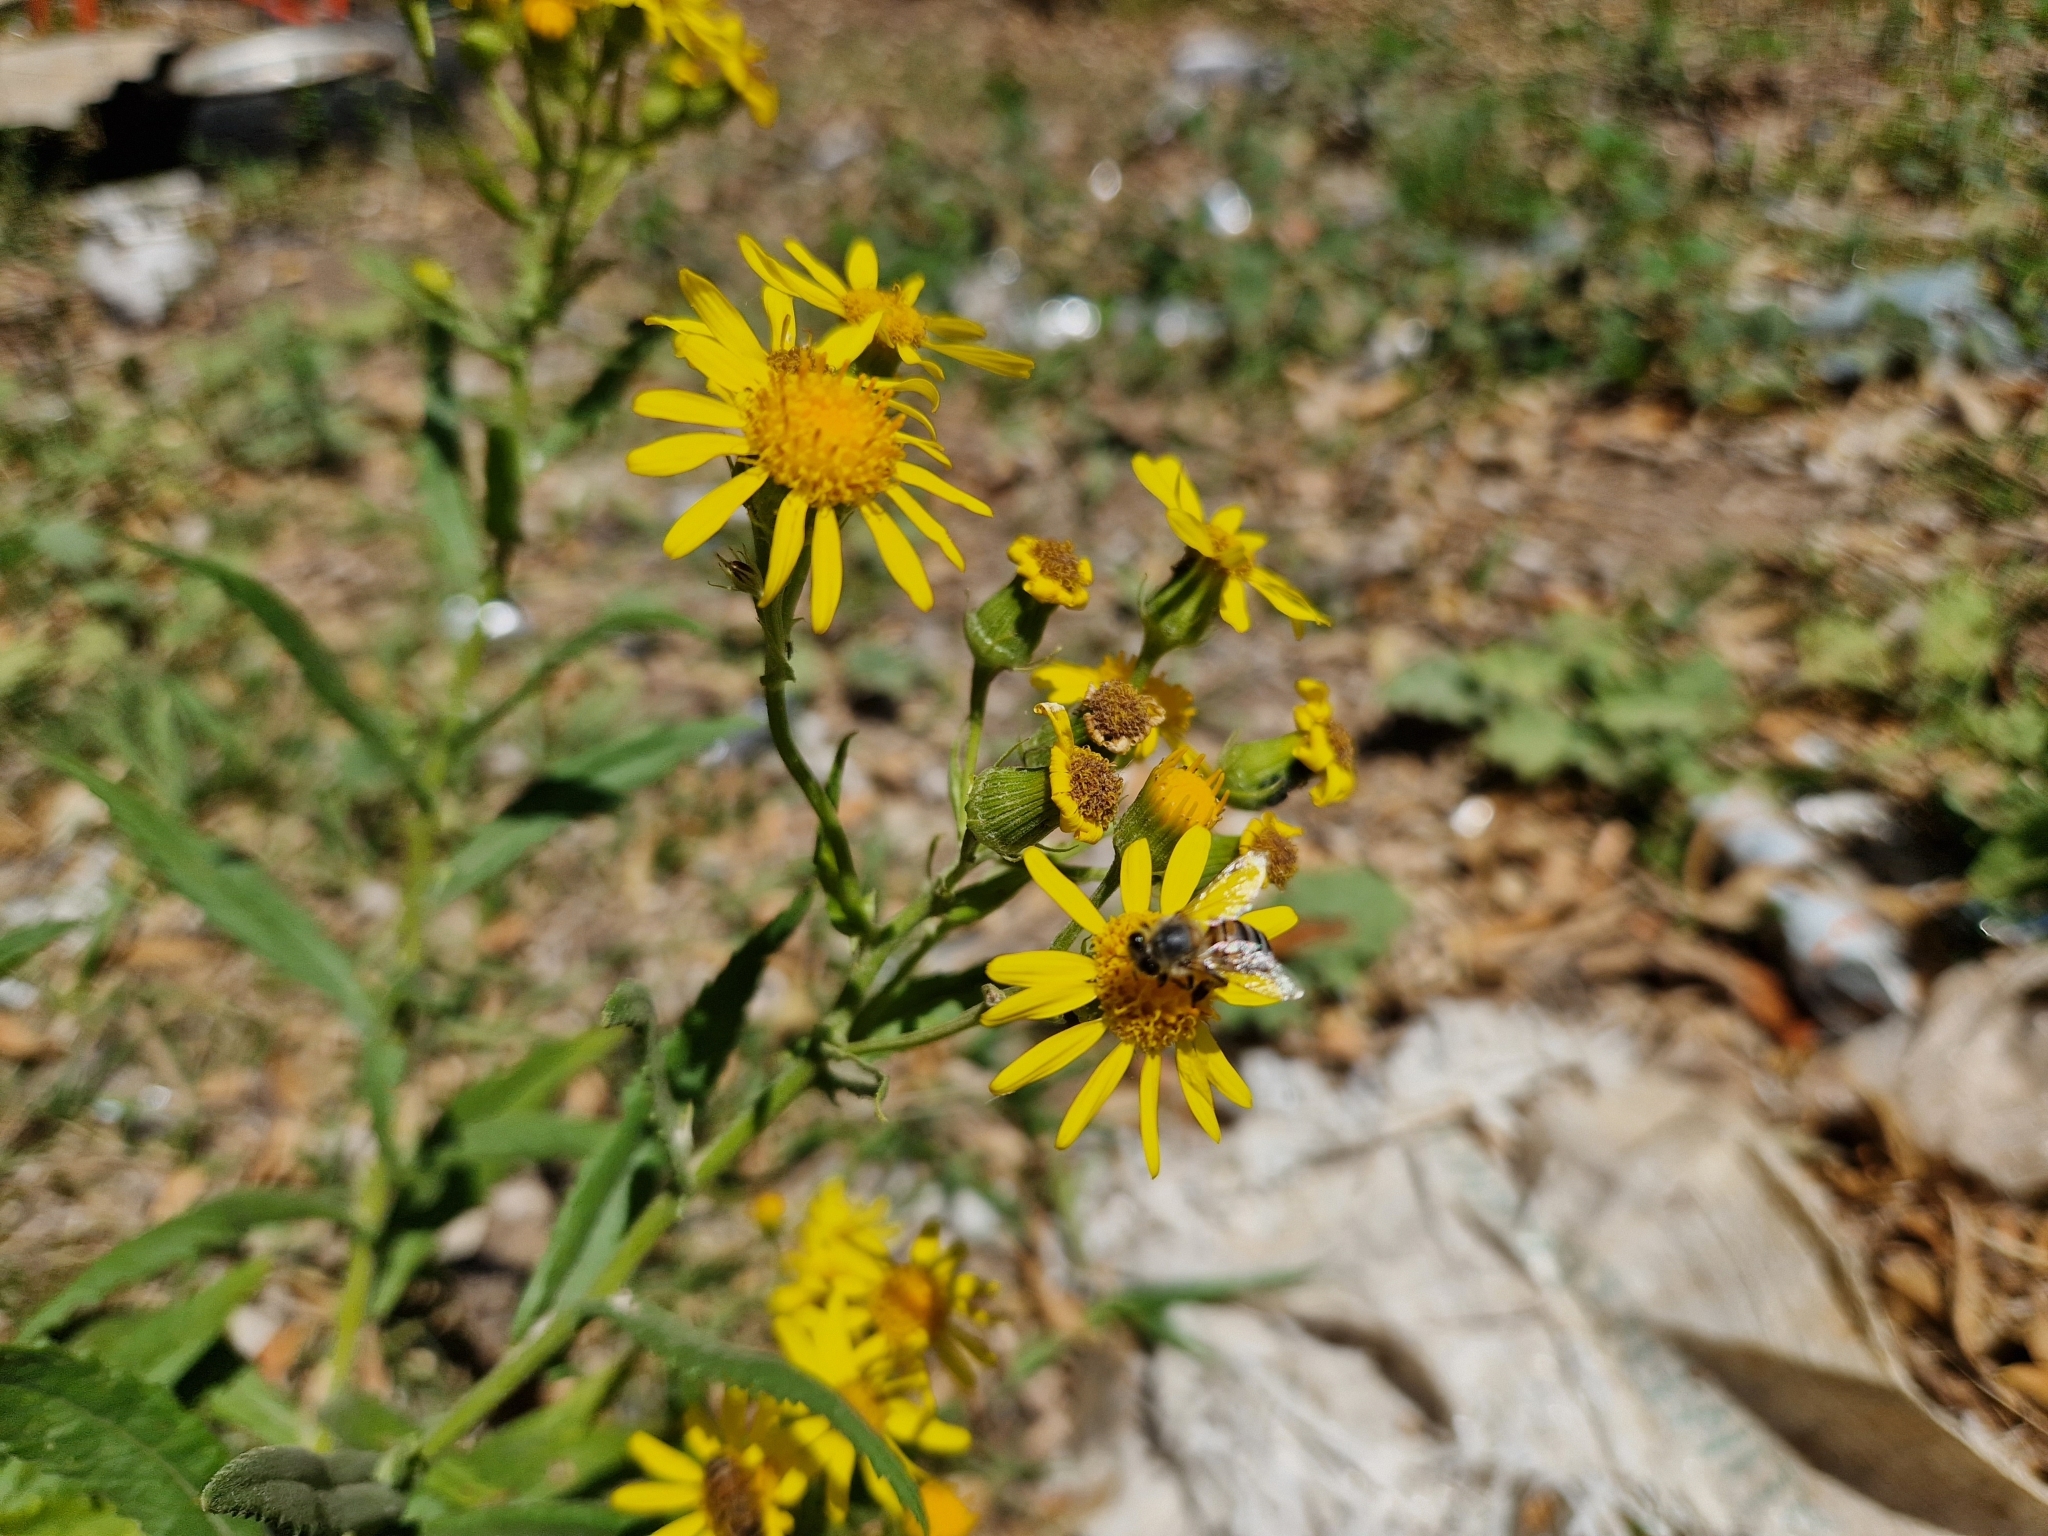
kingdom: Animalia
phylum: Arthropoda
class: Insecta
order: Hymenoptera
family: Apidae
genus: Apis
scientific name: Apis mellifera
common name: Honey bee
